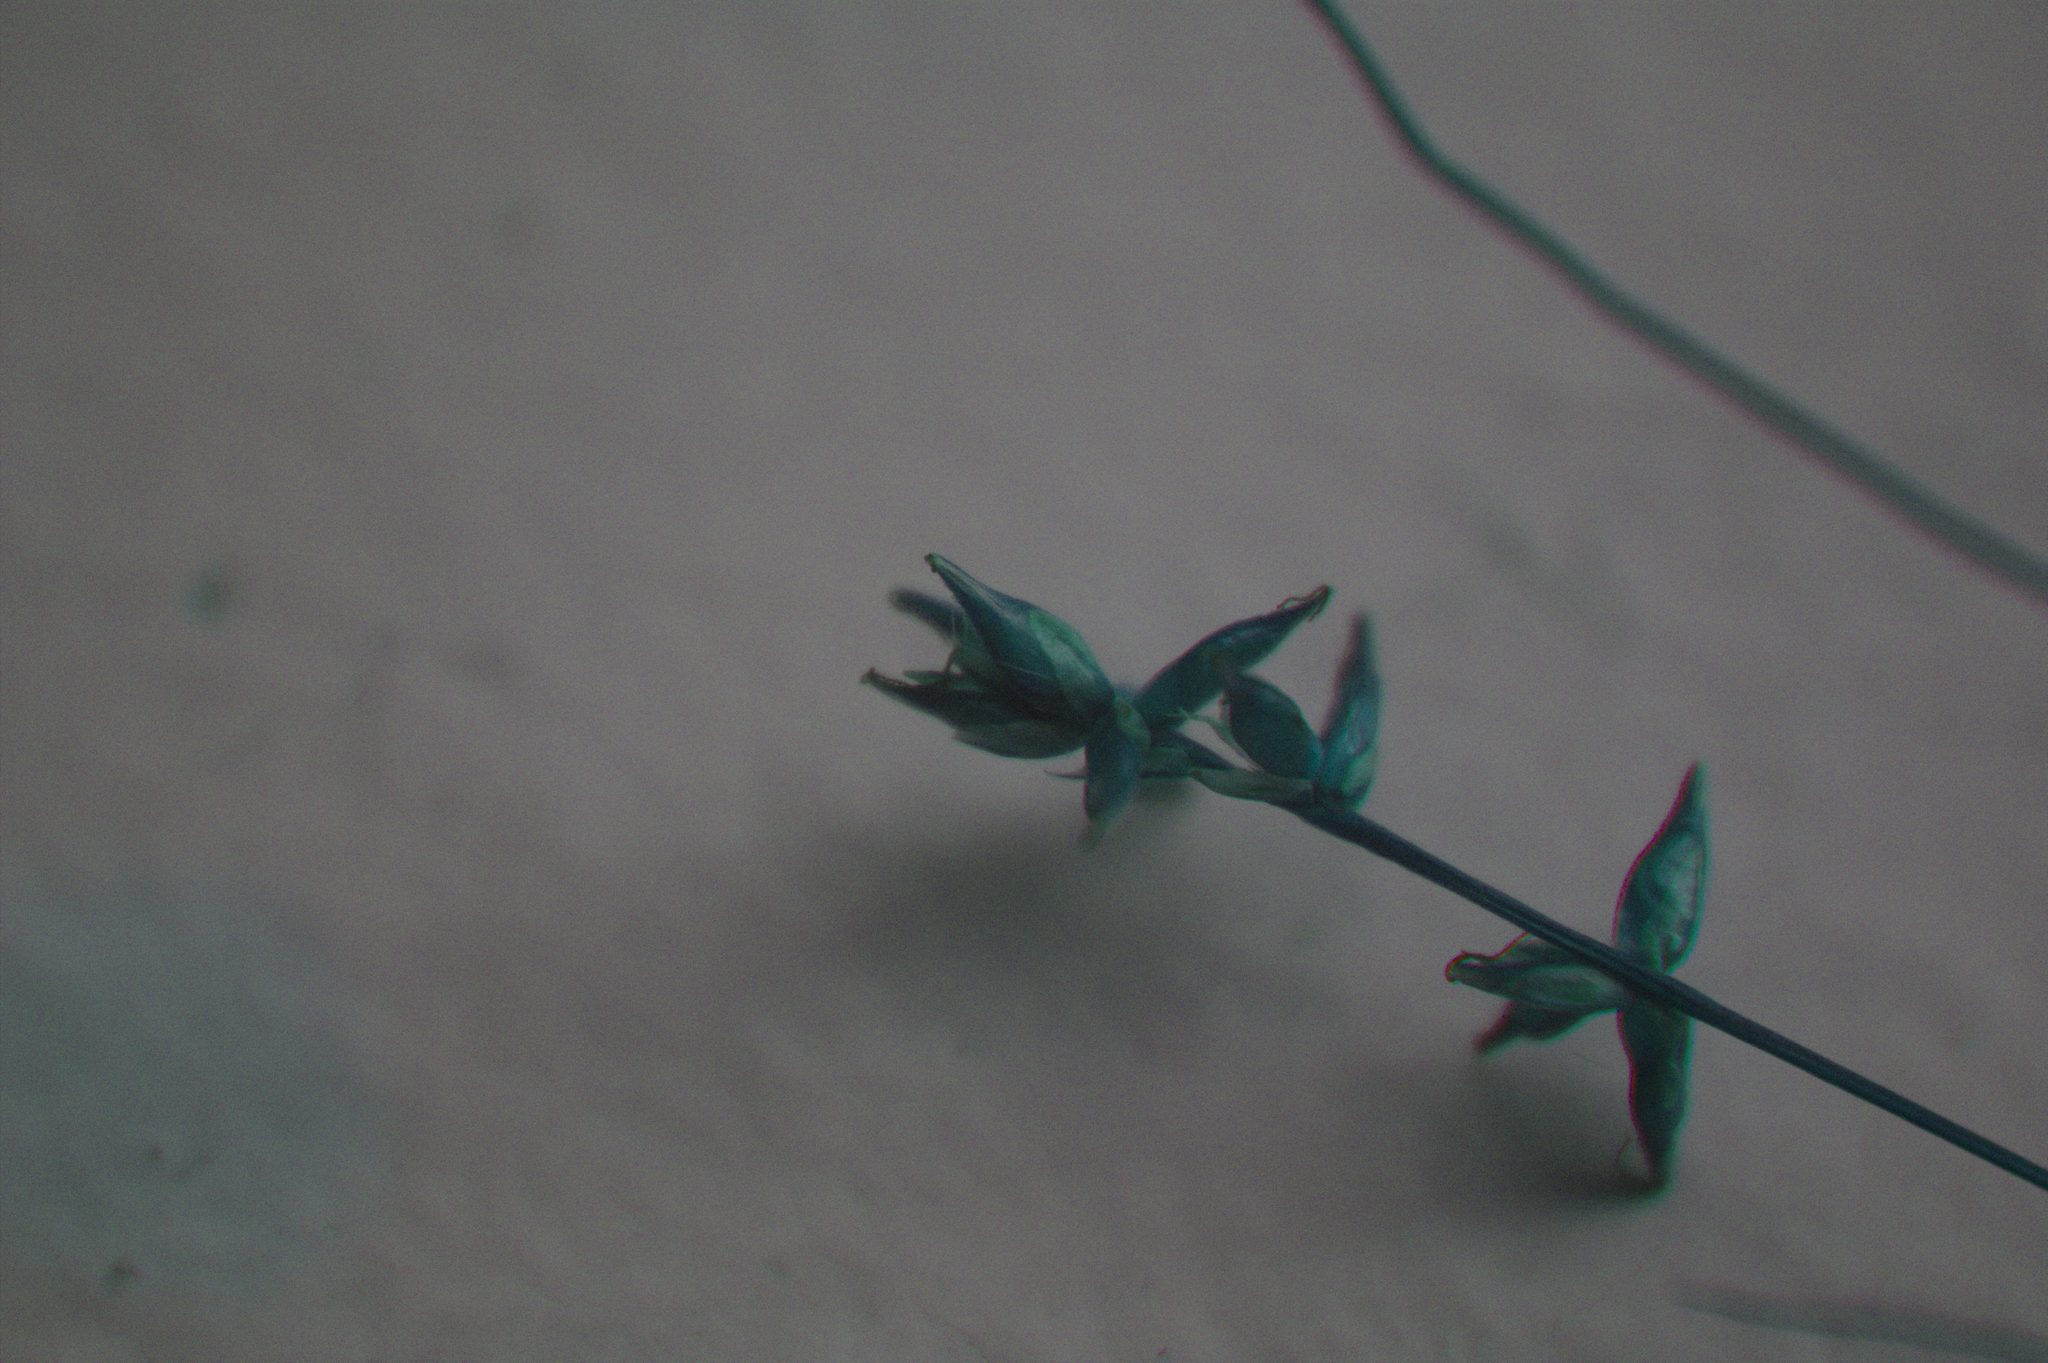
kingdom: Plantae
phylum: Tracheophyta
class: Liliopsida
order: Poales
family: Cyperaceae
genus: Carex
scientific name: Carex radiata
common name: Eastern star sedge
